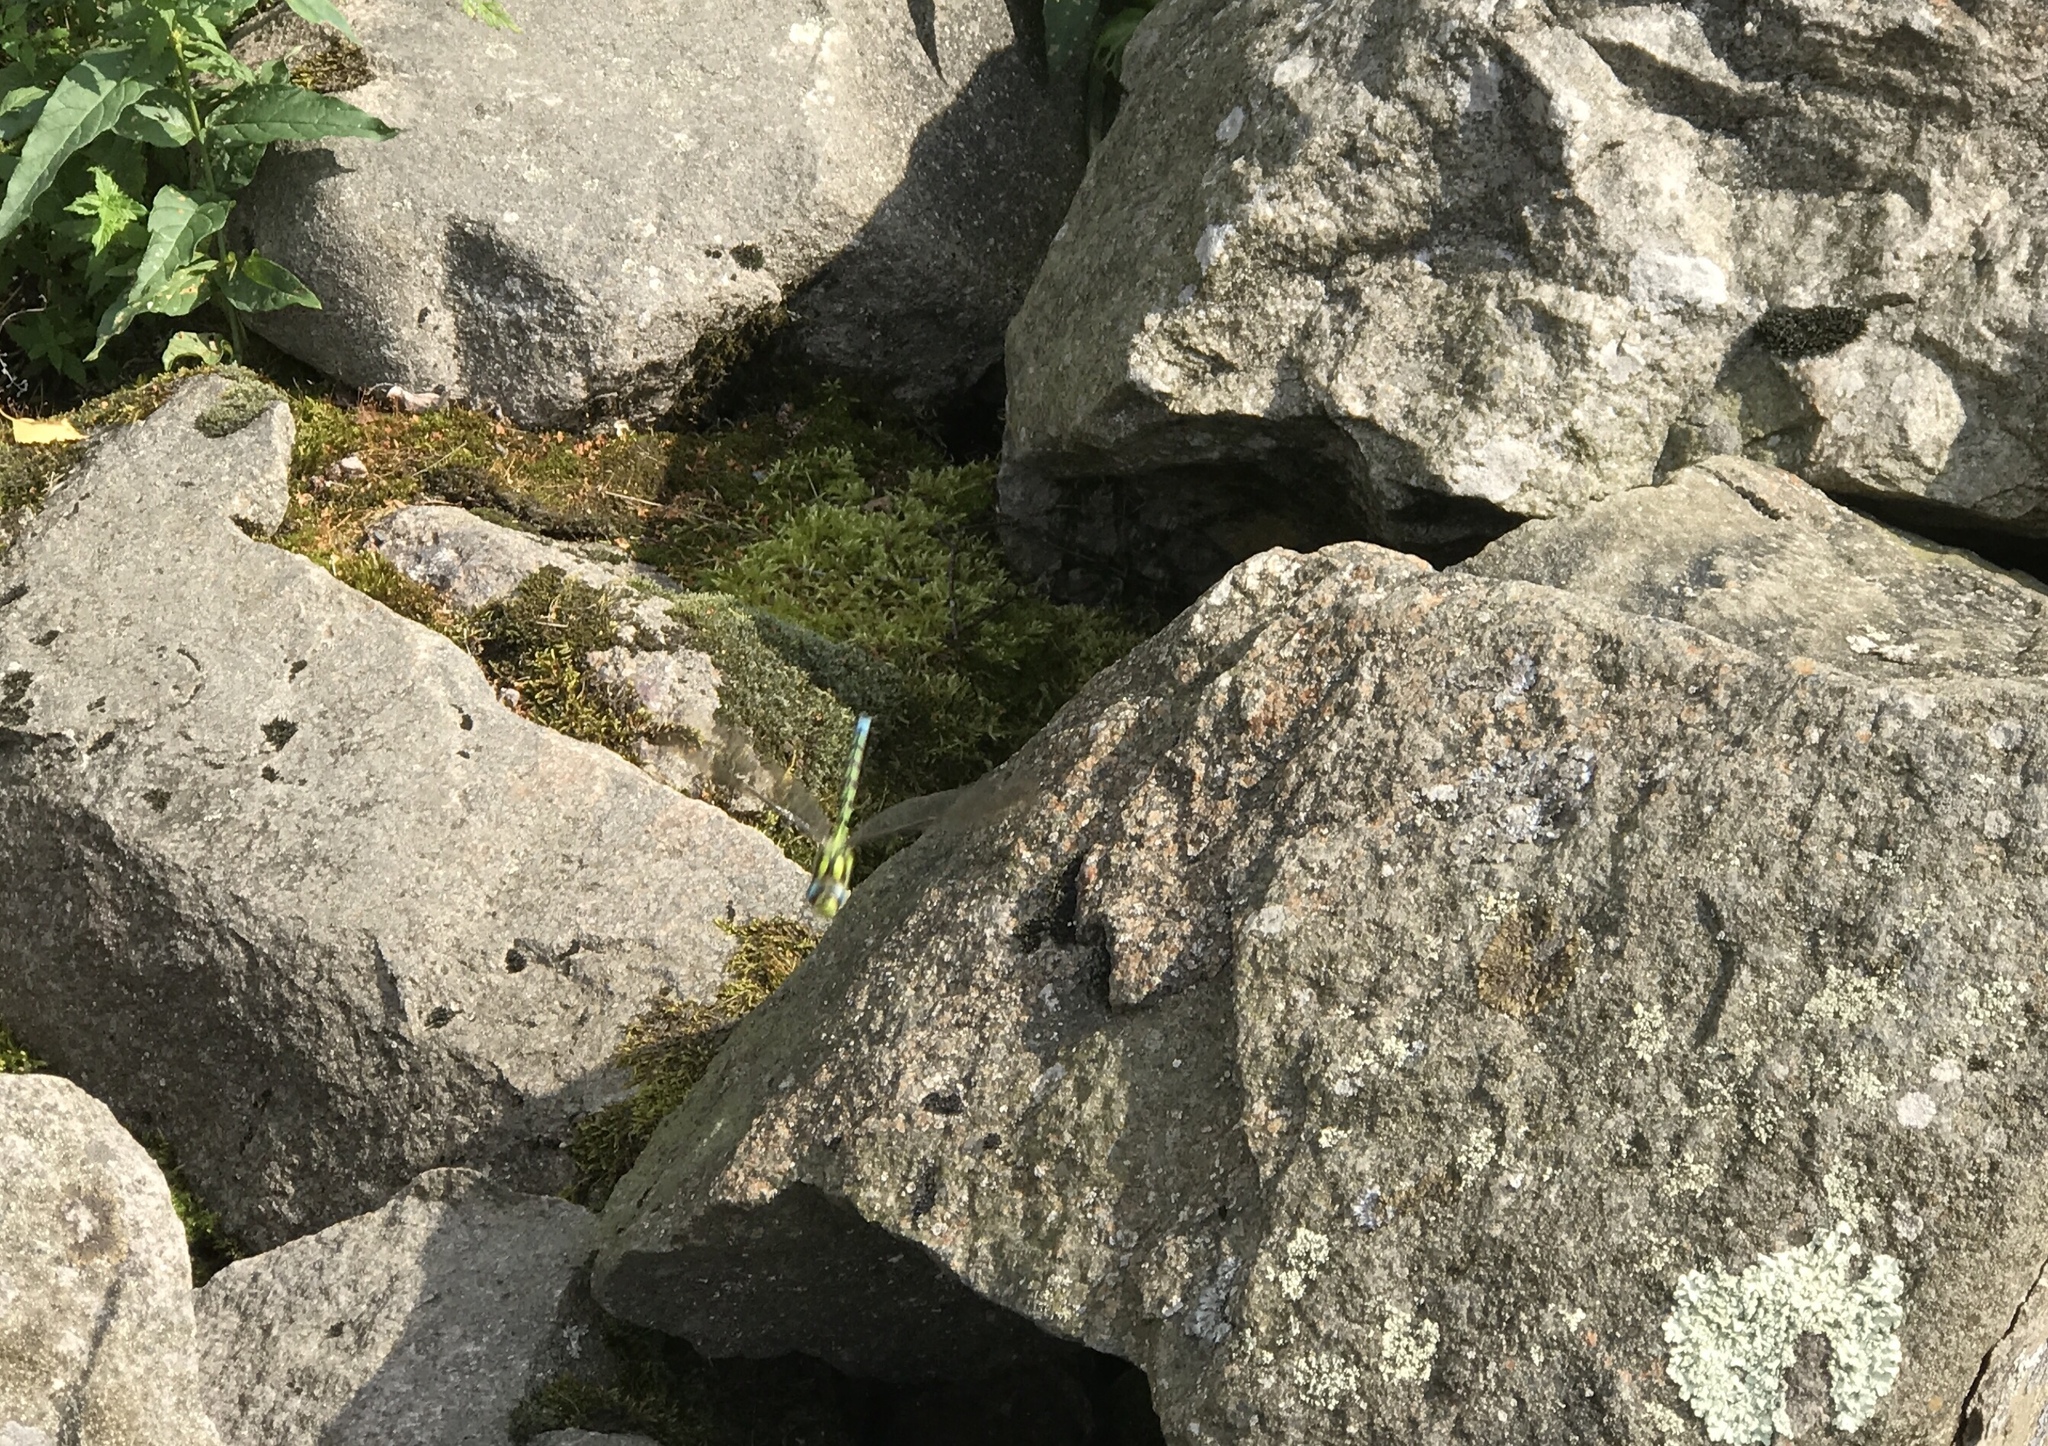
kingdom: Animalia
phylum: Arthropoda
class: Insecta
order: Odonata
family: Aeshnidae
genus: Aeshna
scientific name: Aeshna cyanea
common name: Southern hawker
